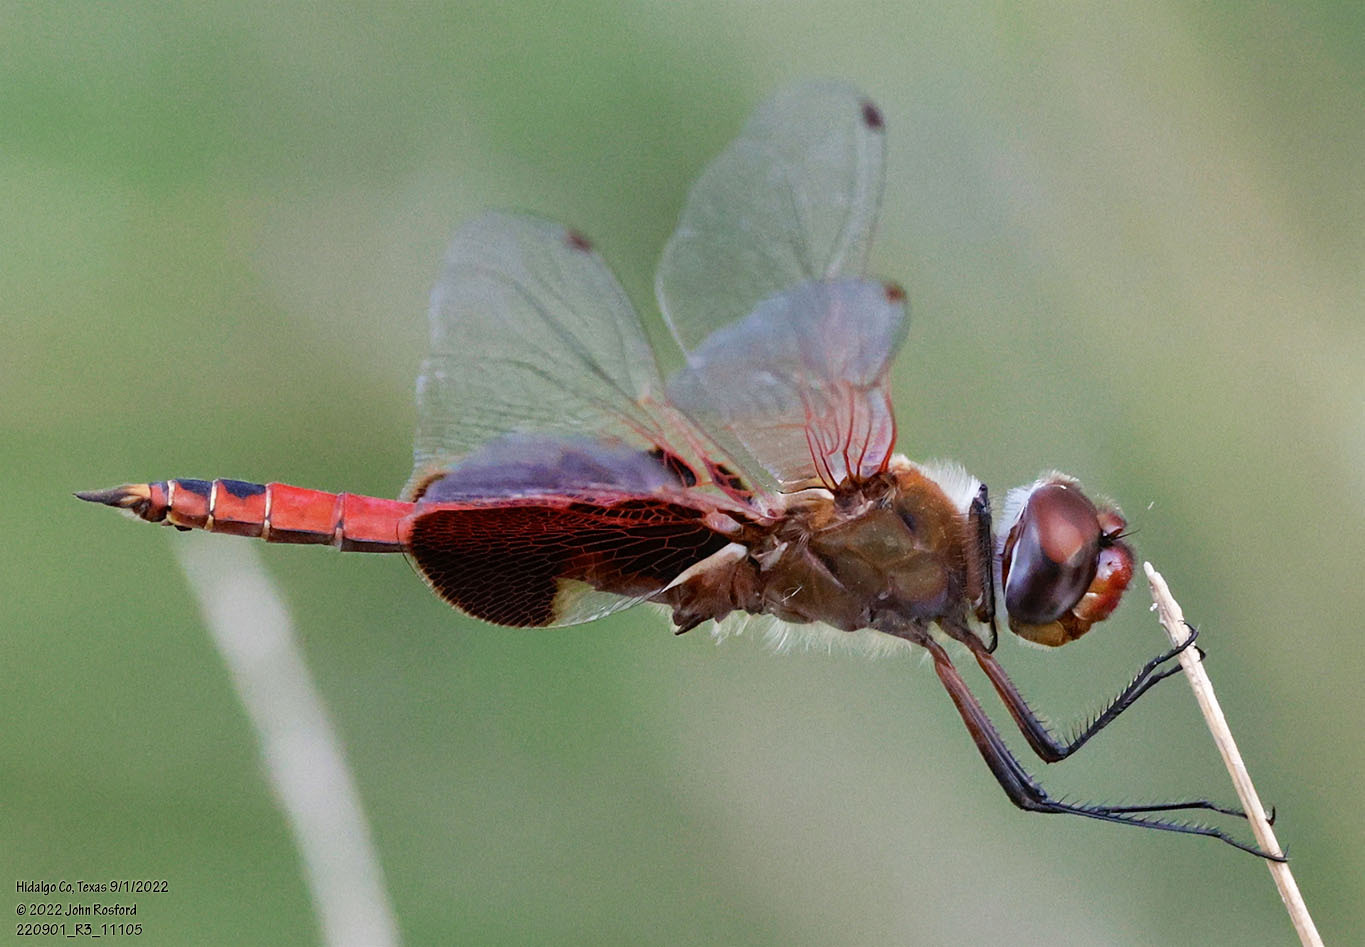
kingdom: Animalia
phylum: Arthropoda
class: Insecta
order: Odonata
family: Libellulidae
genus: Tramea
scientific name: Tramea onusta
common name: Red saddlebags
